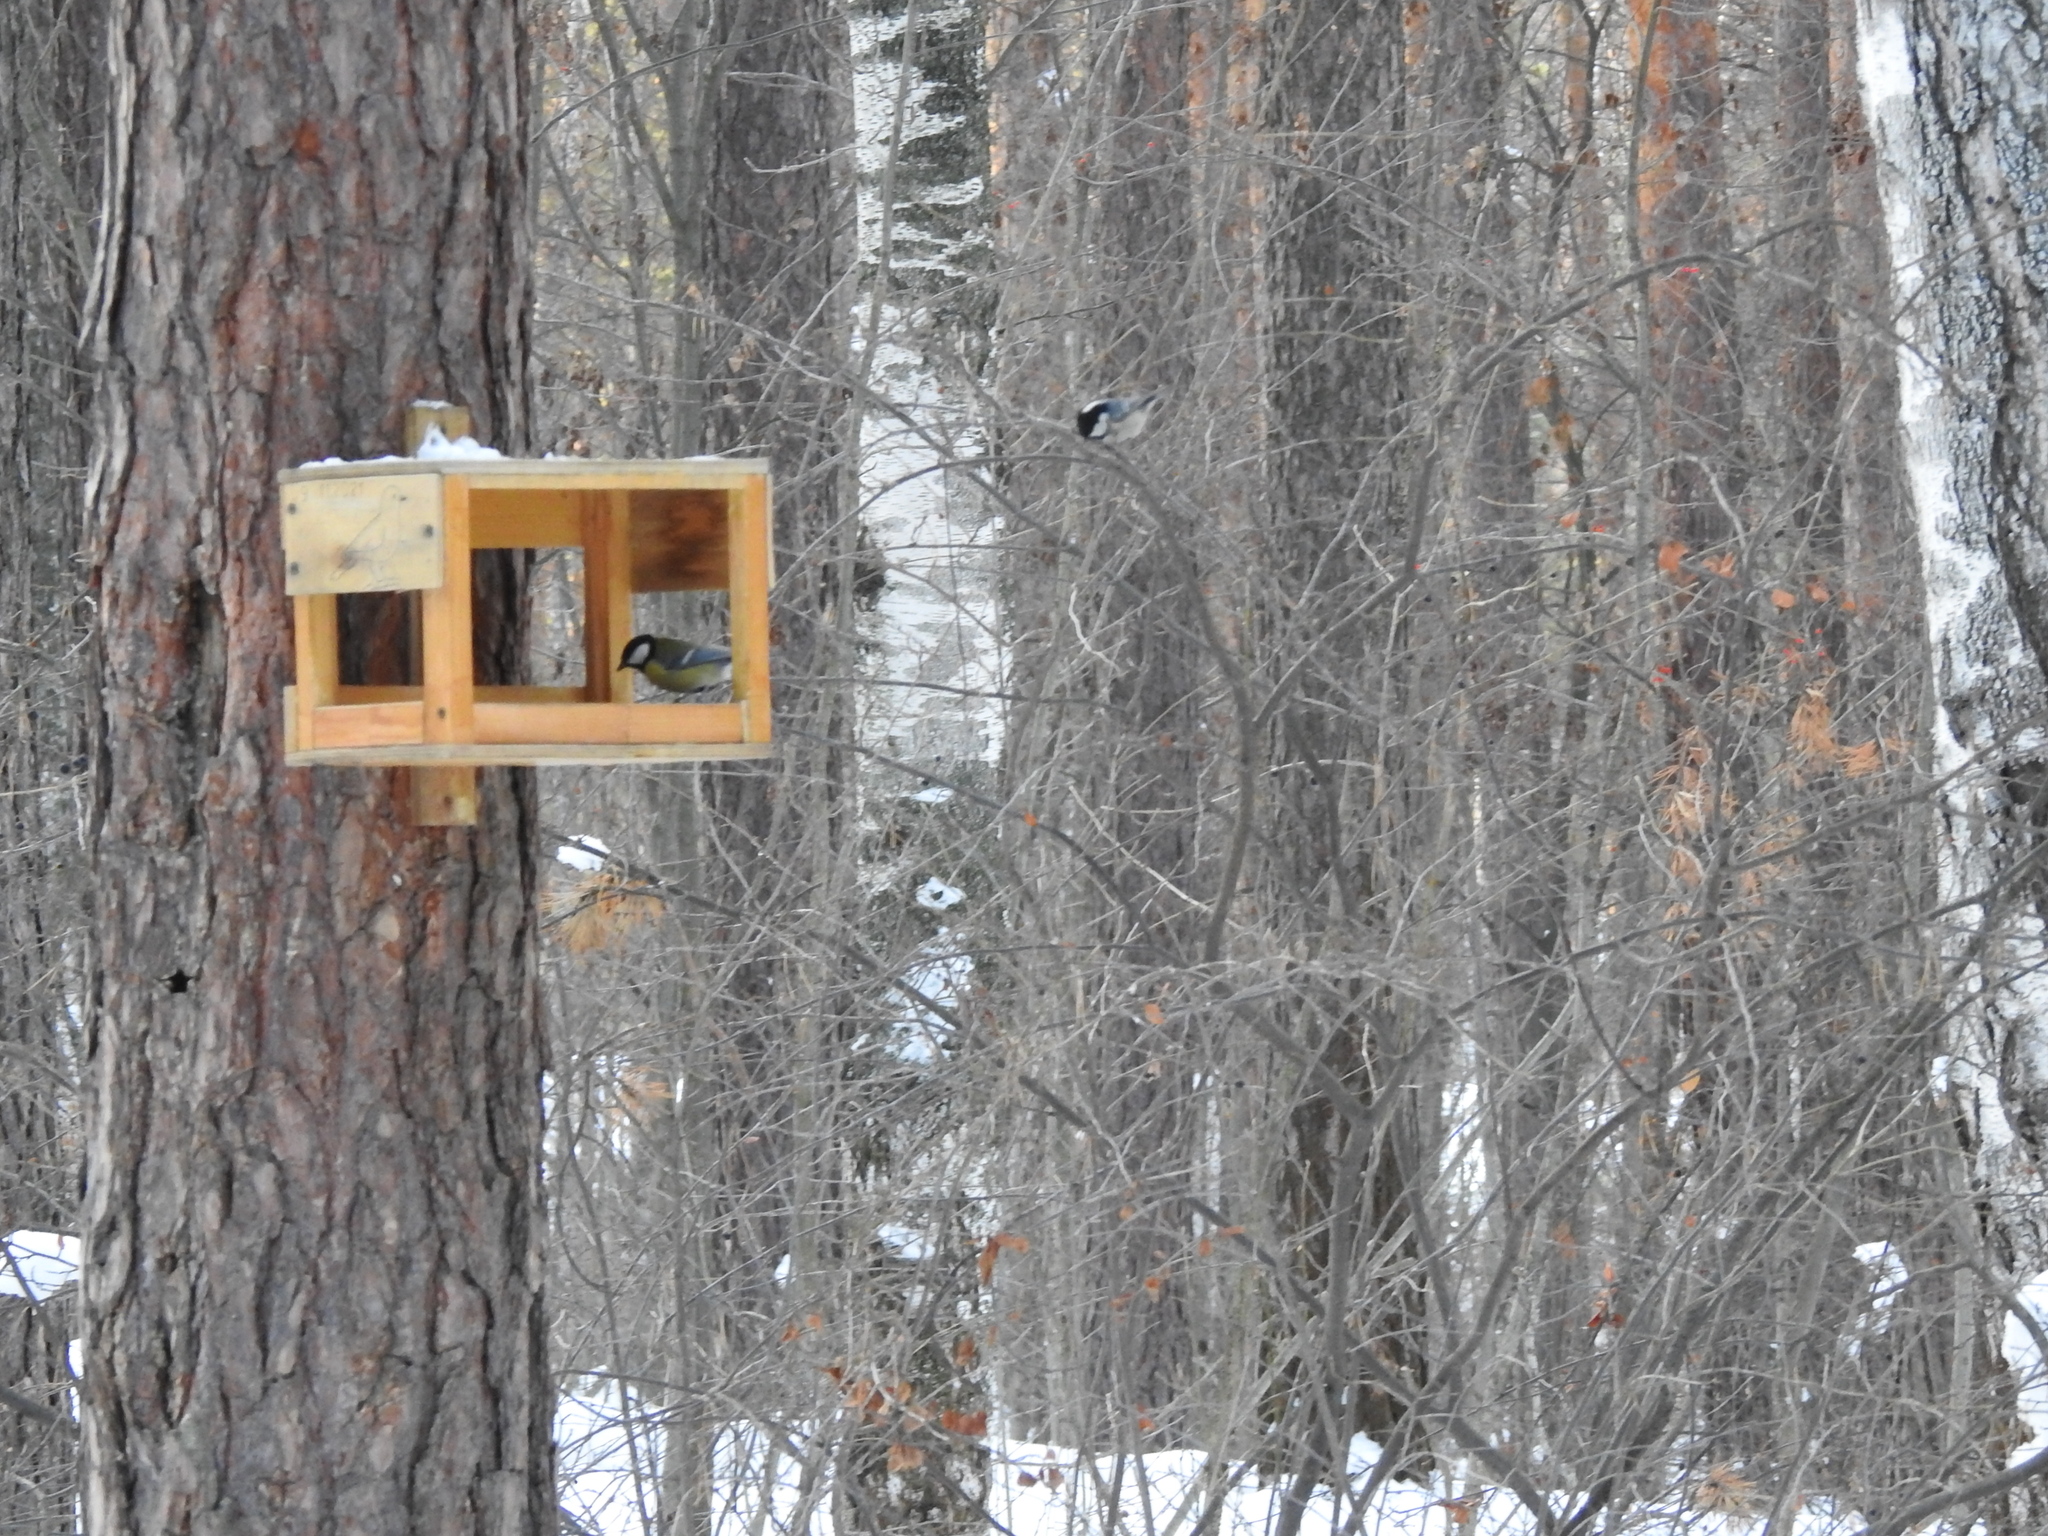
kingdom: Animalia
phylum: Chordata
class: Aves
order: Passeriformes
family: Paridae
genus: Parus
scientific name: Parus major
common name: Great tit
